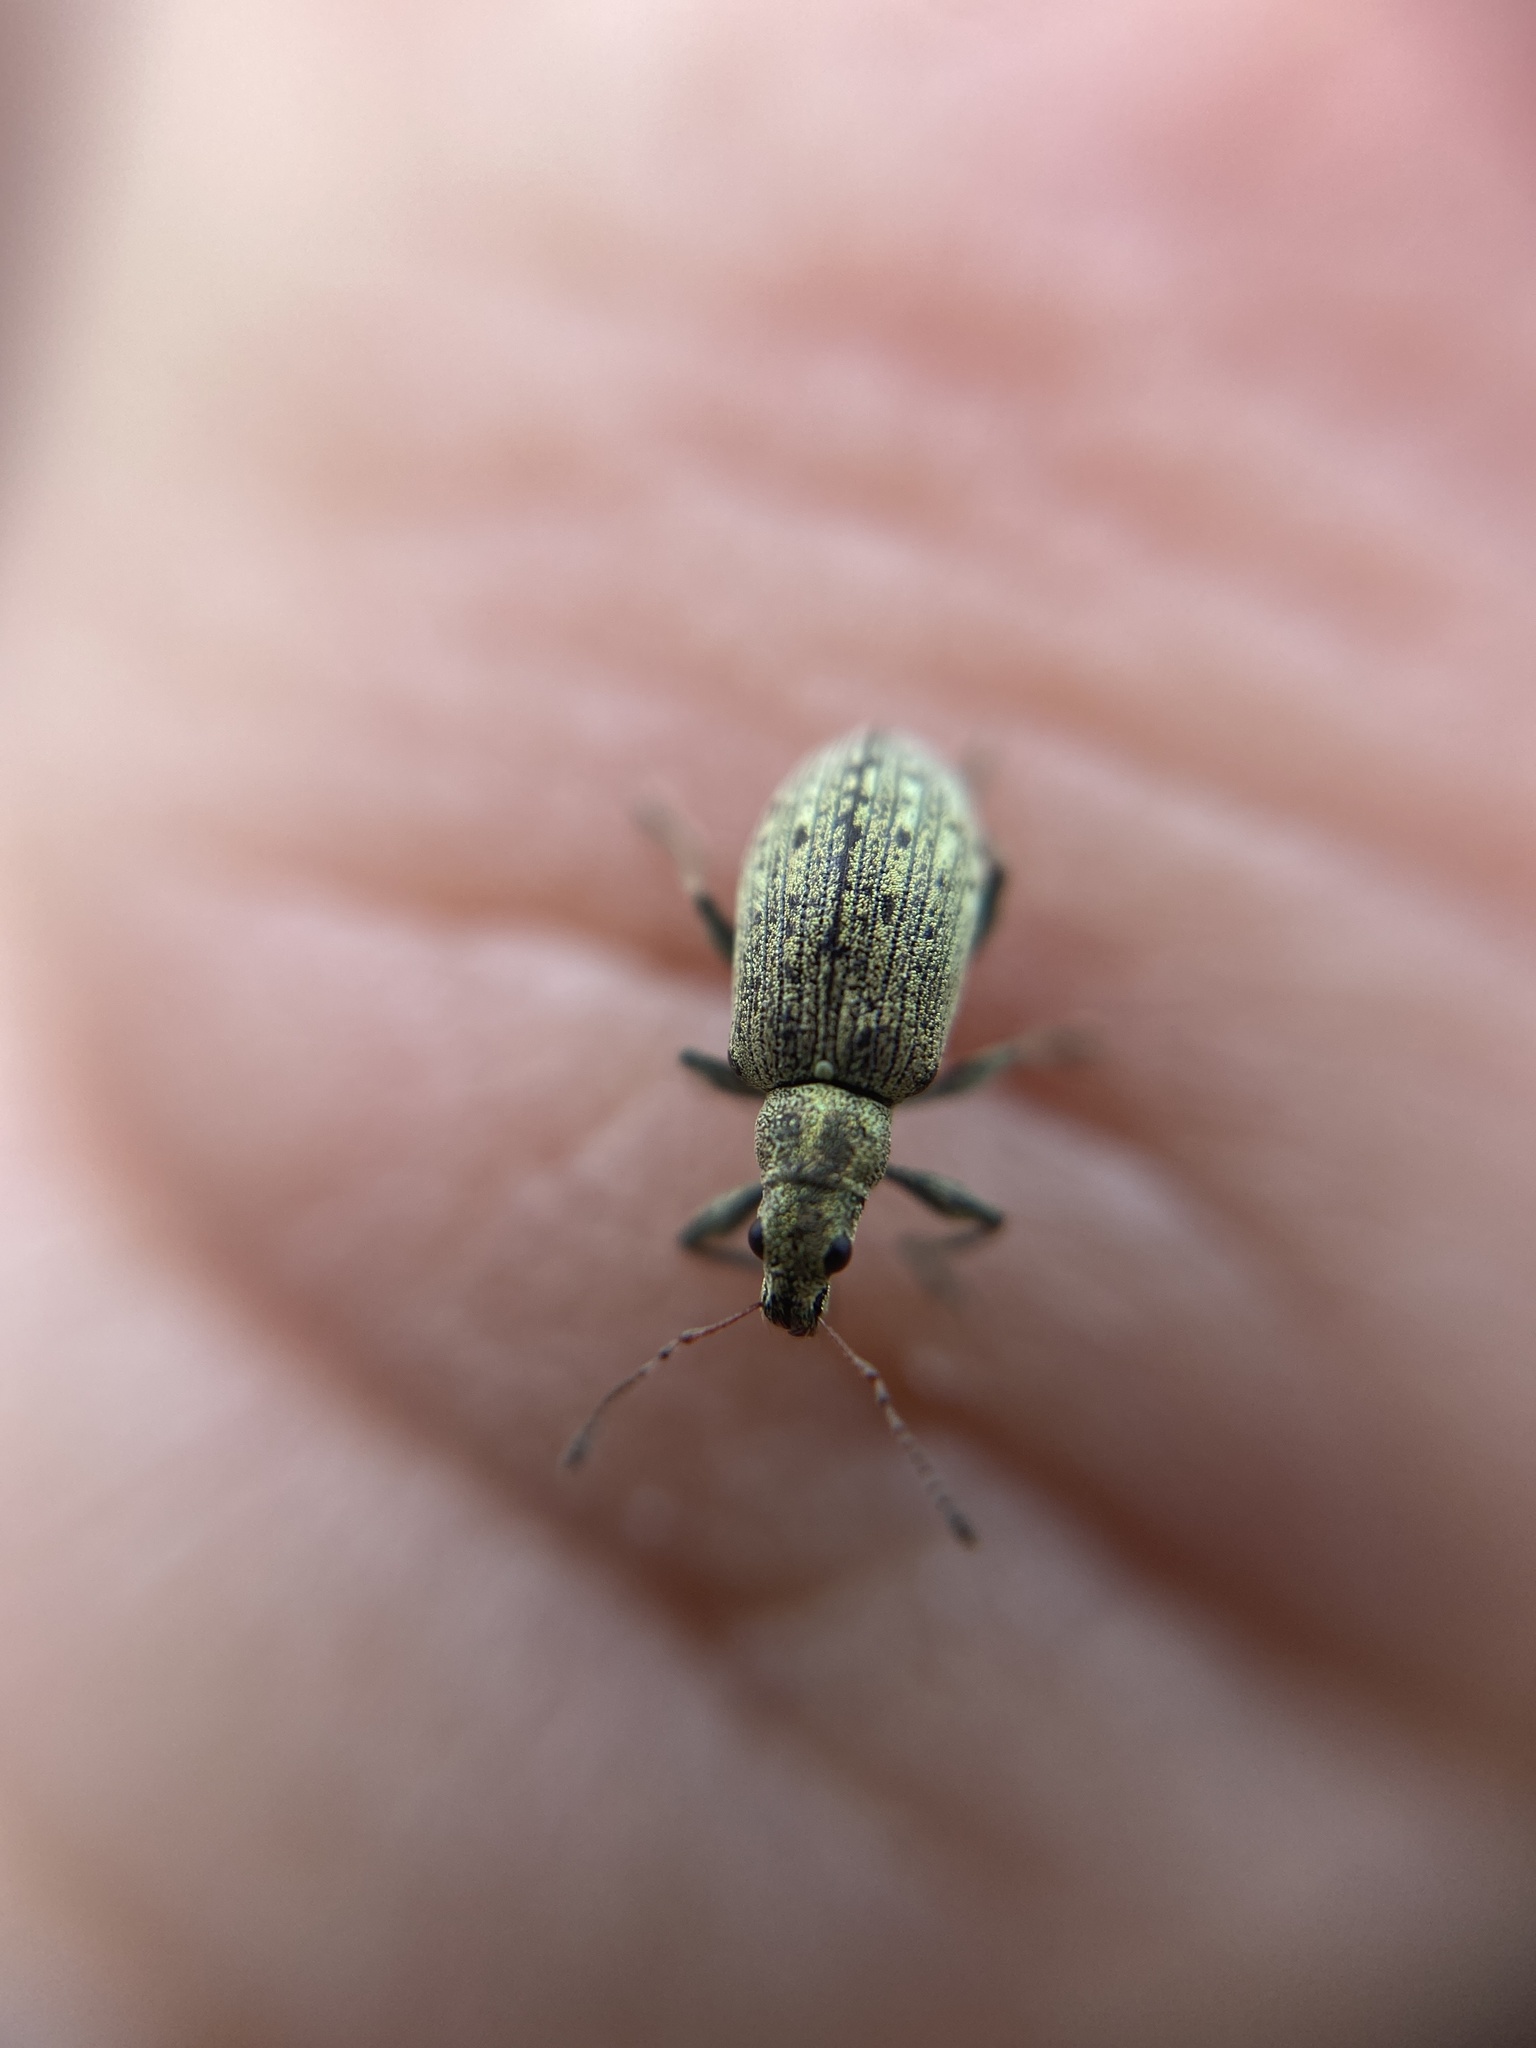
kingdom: Animalia
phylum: Arthropoda
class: Insecta
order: Coleoptera
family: Curculionidae
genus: Polydrusus
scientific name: Polydrusus cervinus
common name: Weevil
